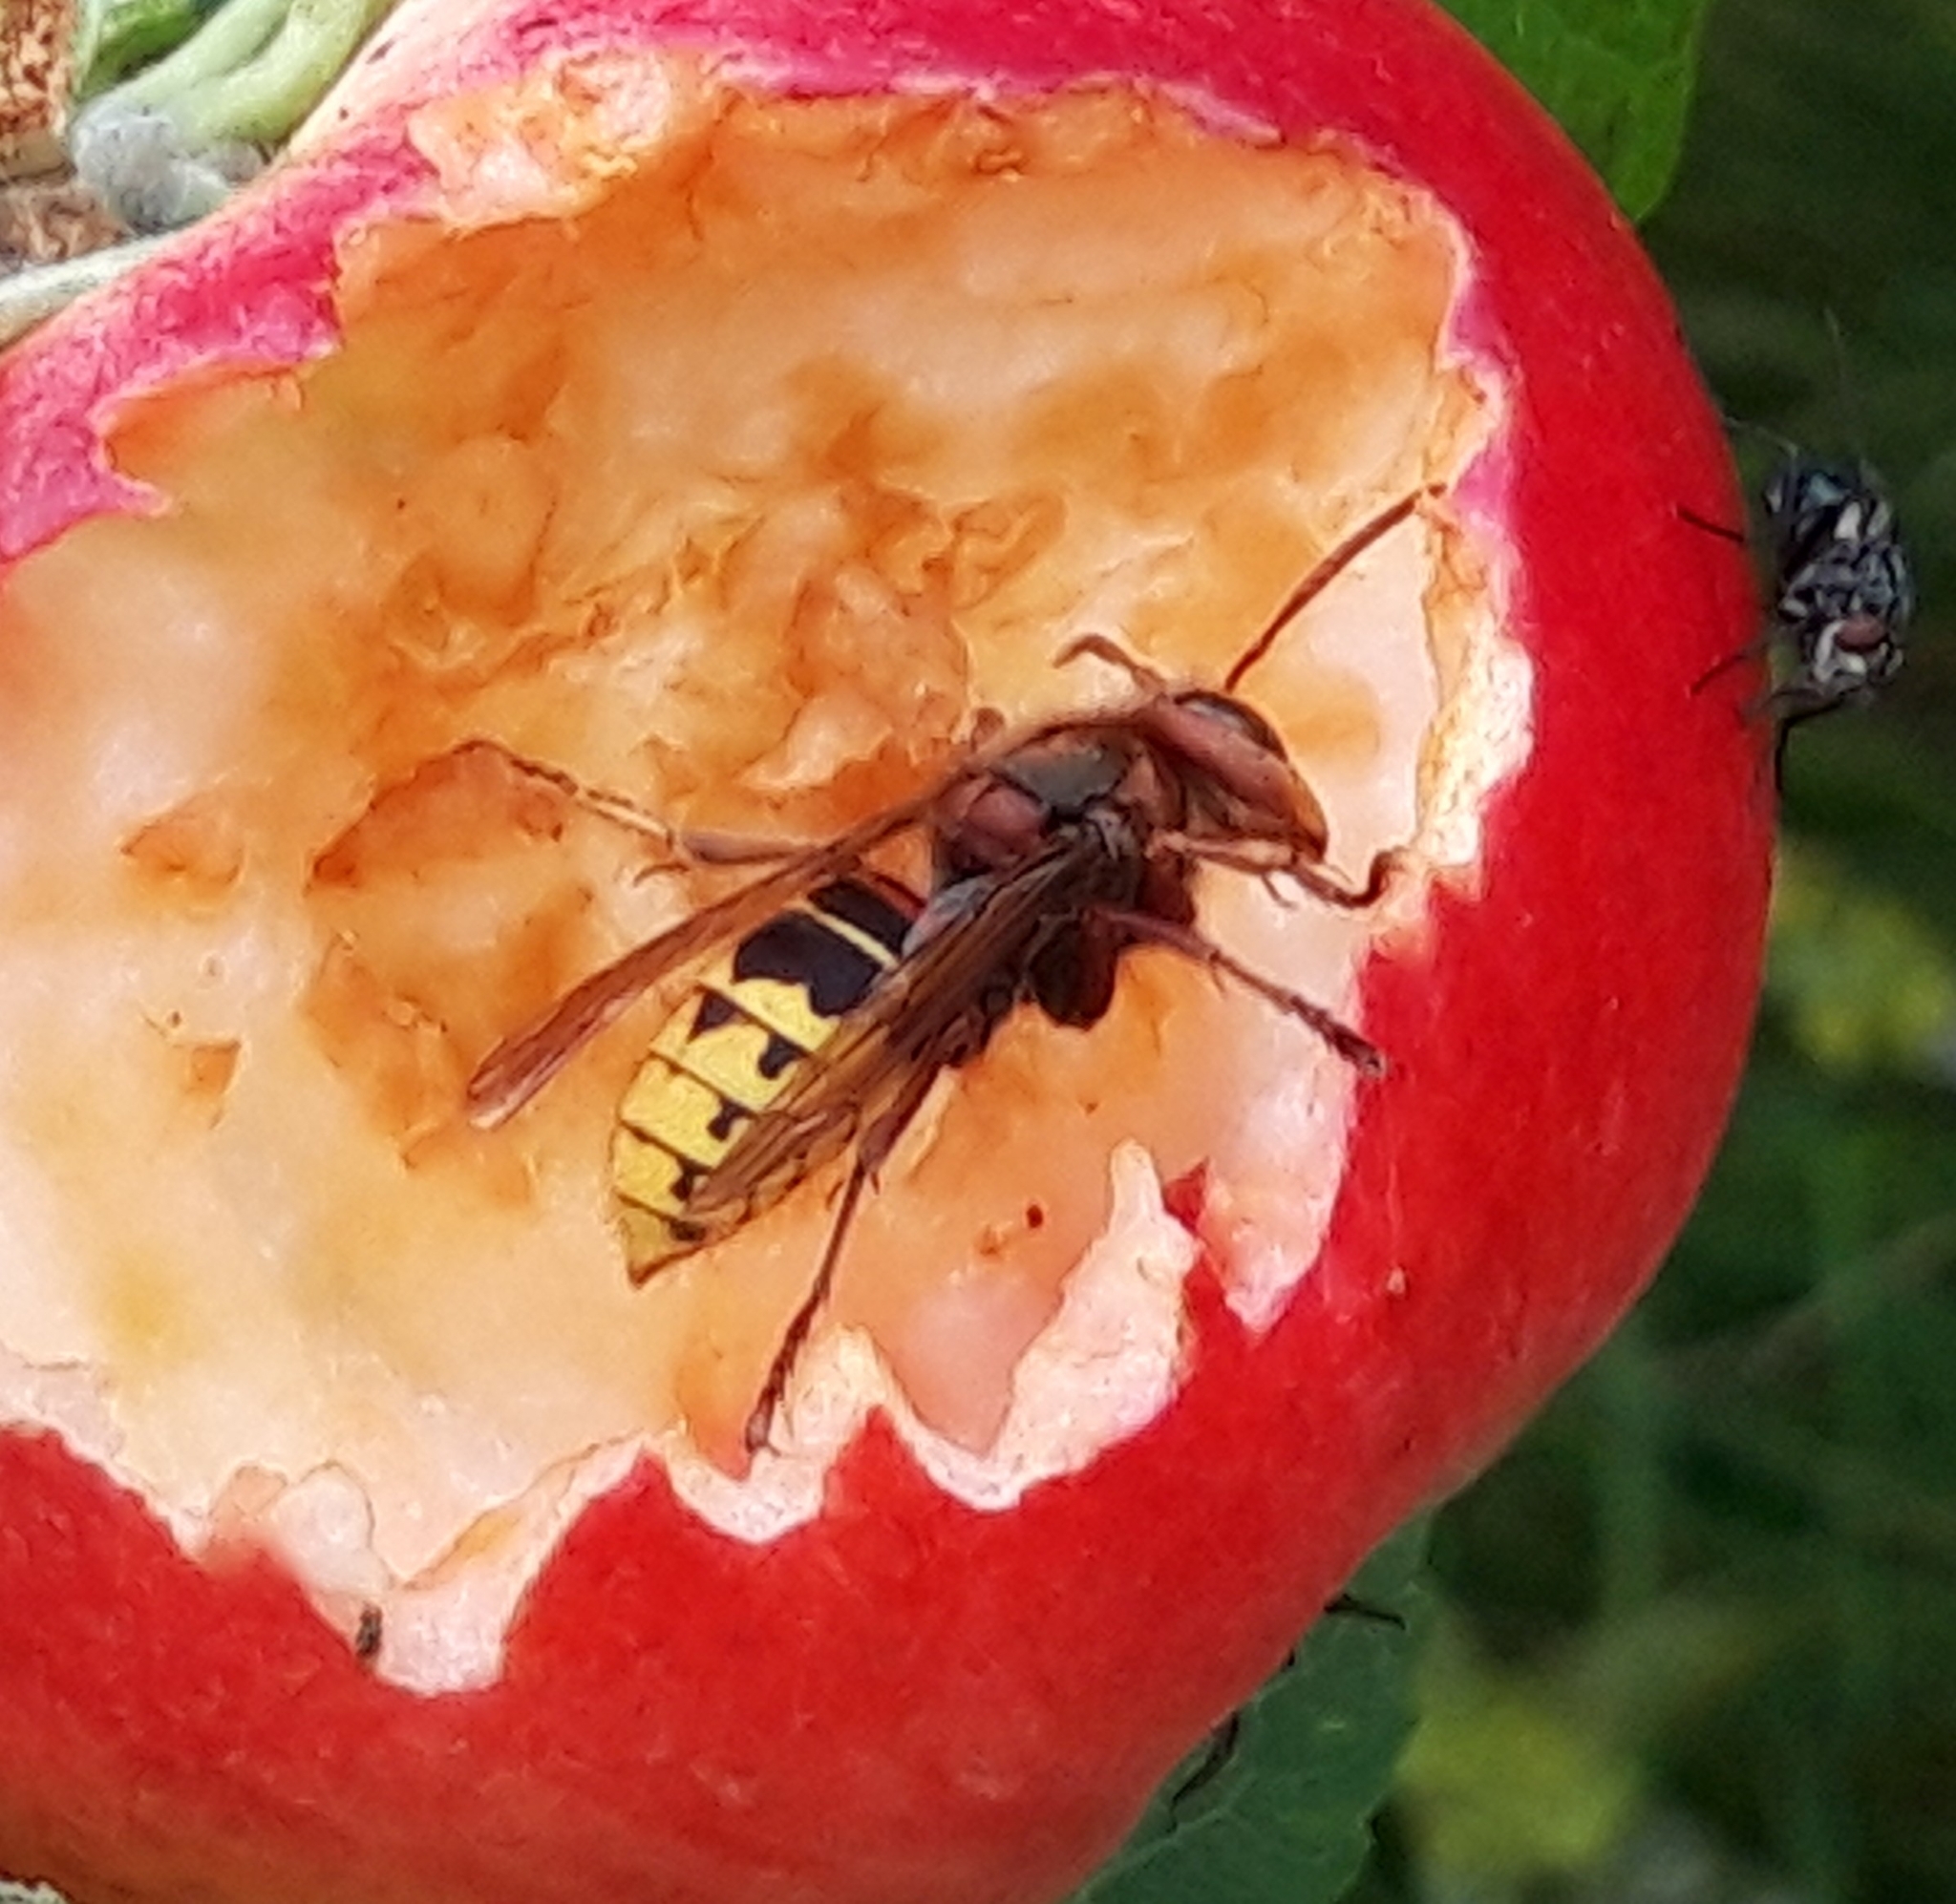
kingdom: Animalia
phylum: Arthropoda
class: Insecta
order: Hymenoptera
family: Vespidae
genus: Vespa
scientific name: Vespa crabro
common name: Hornet
